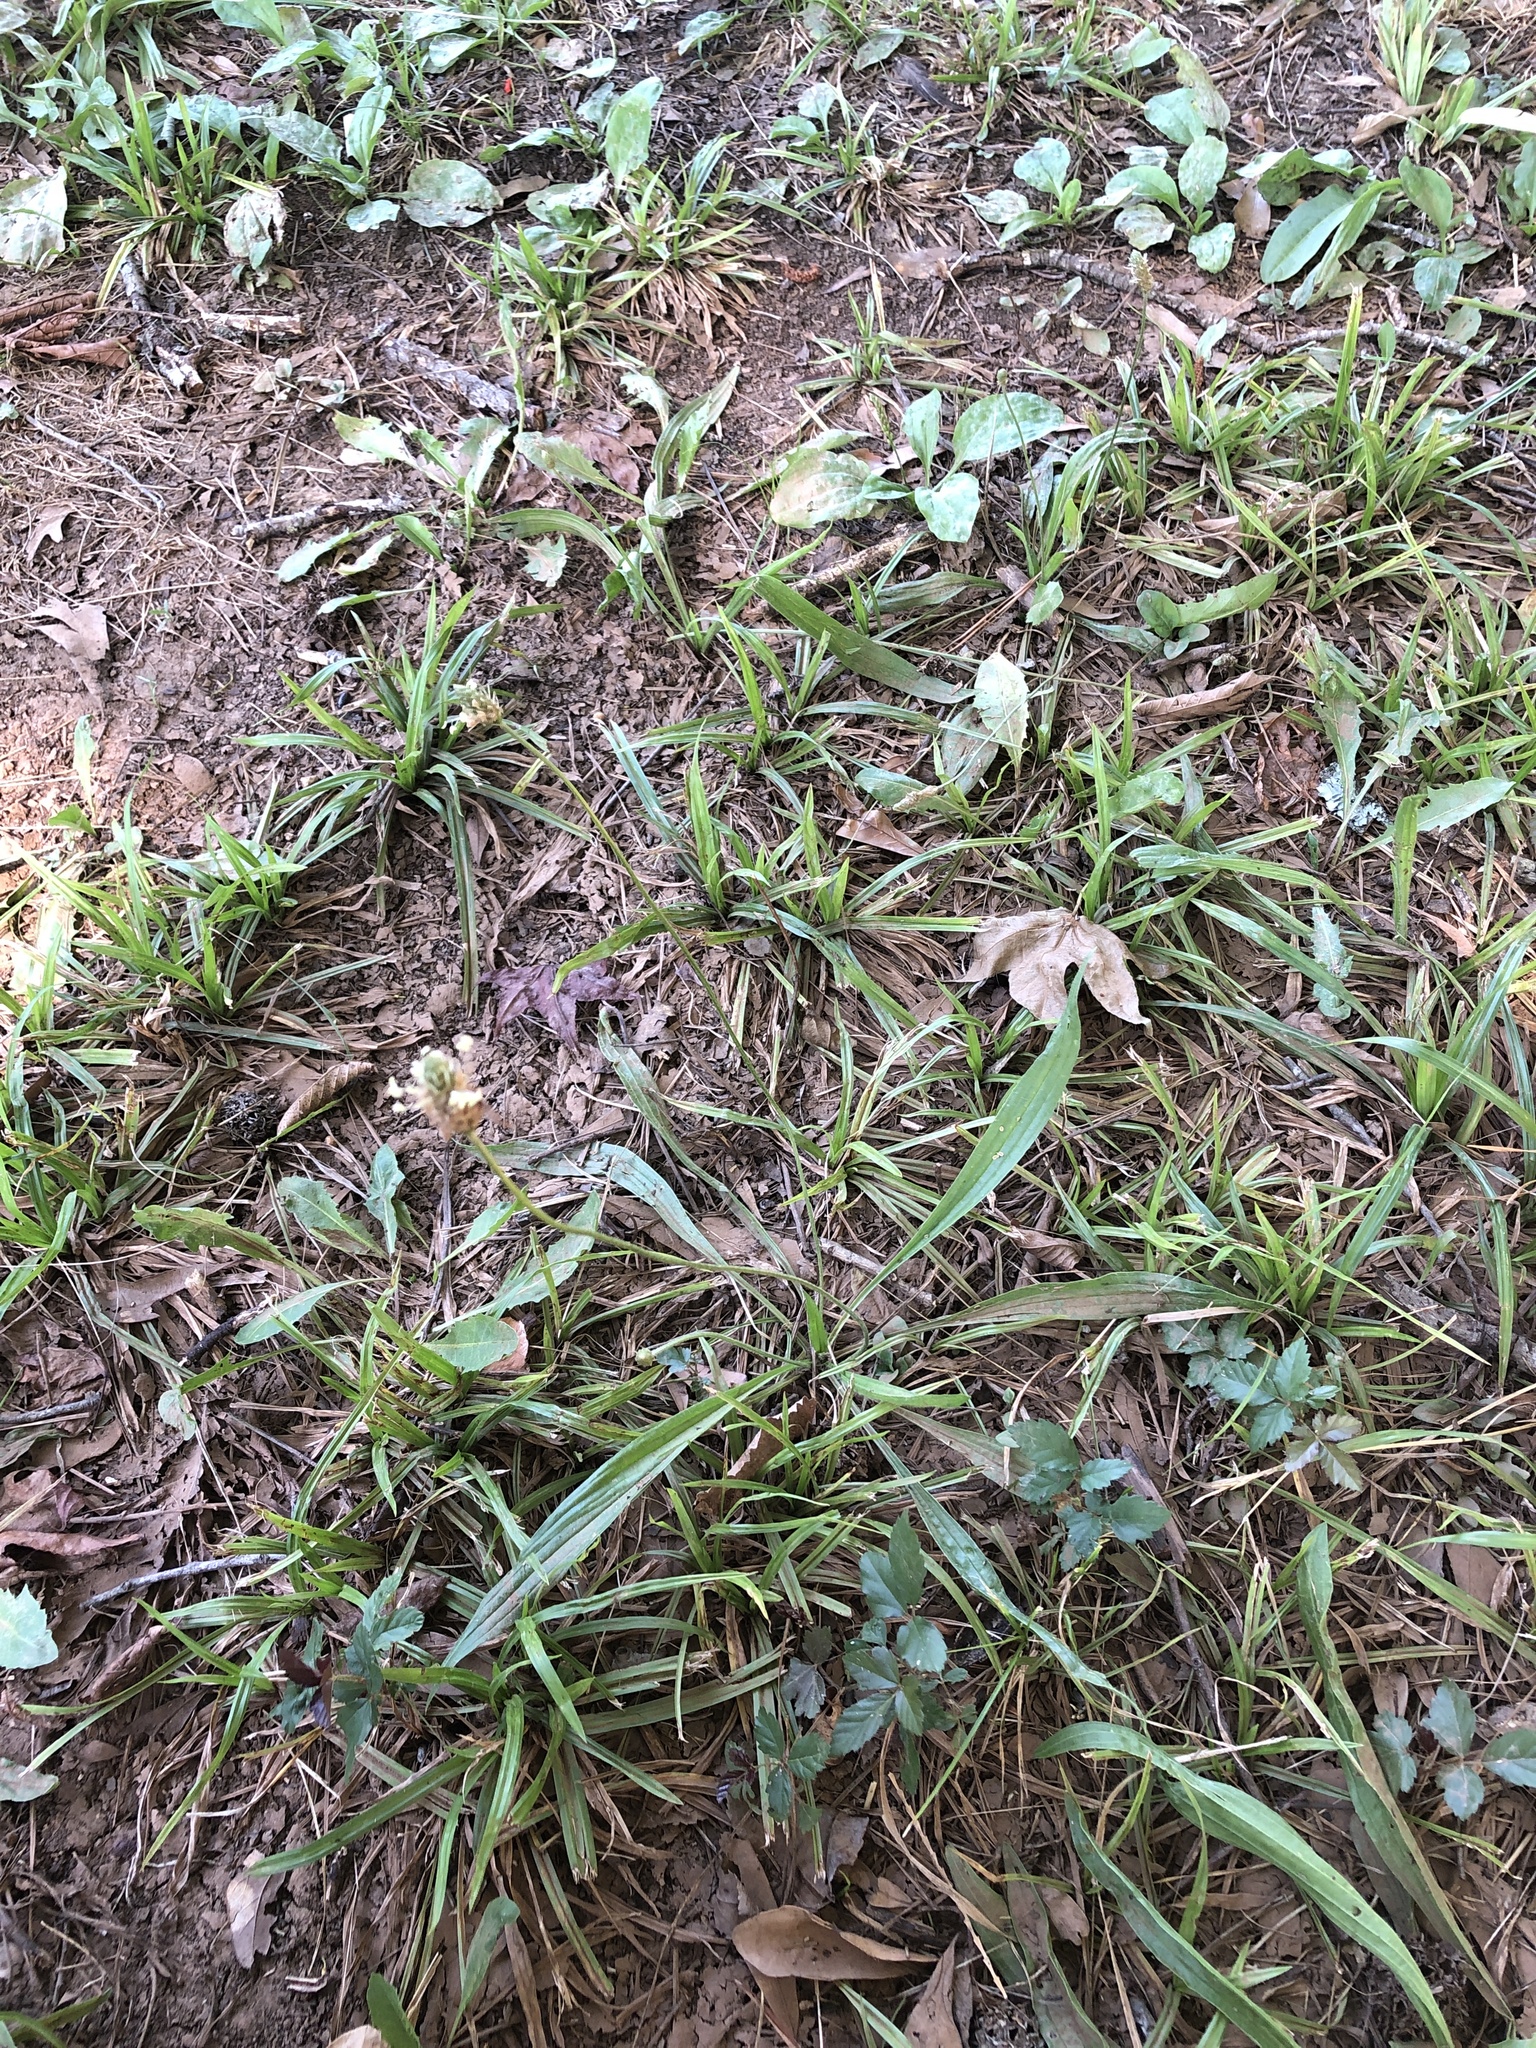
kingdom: Plantae
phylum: Tracheophyta
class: Magnoliopsida
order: Lamiales
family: Plantaginaceae
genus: Plantago
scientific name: Plantago lanceolata
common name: Ribwort plantain
